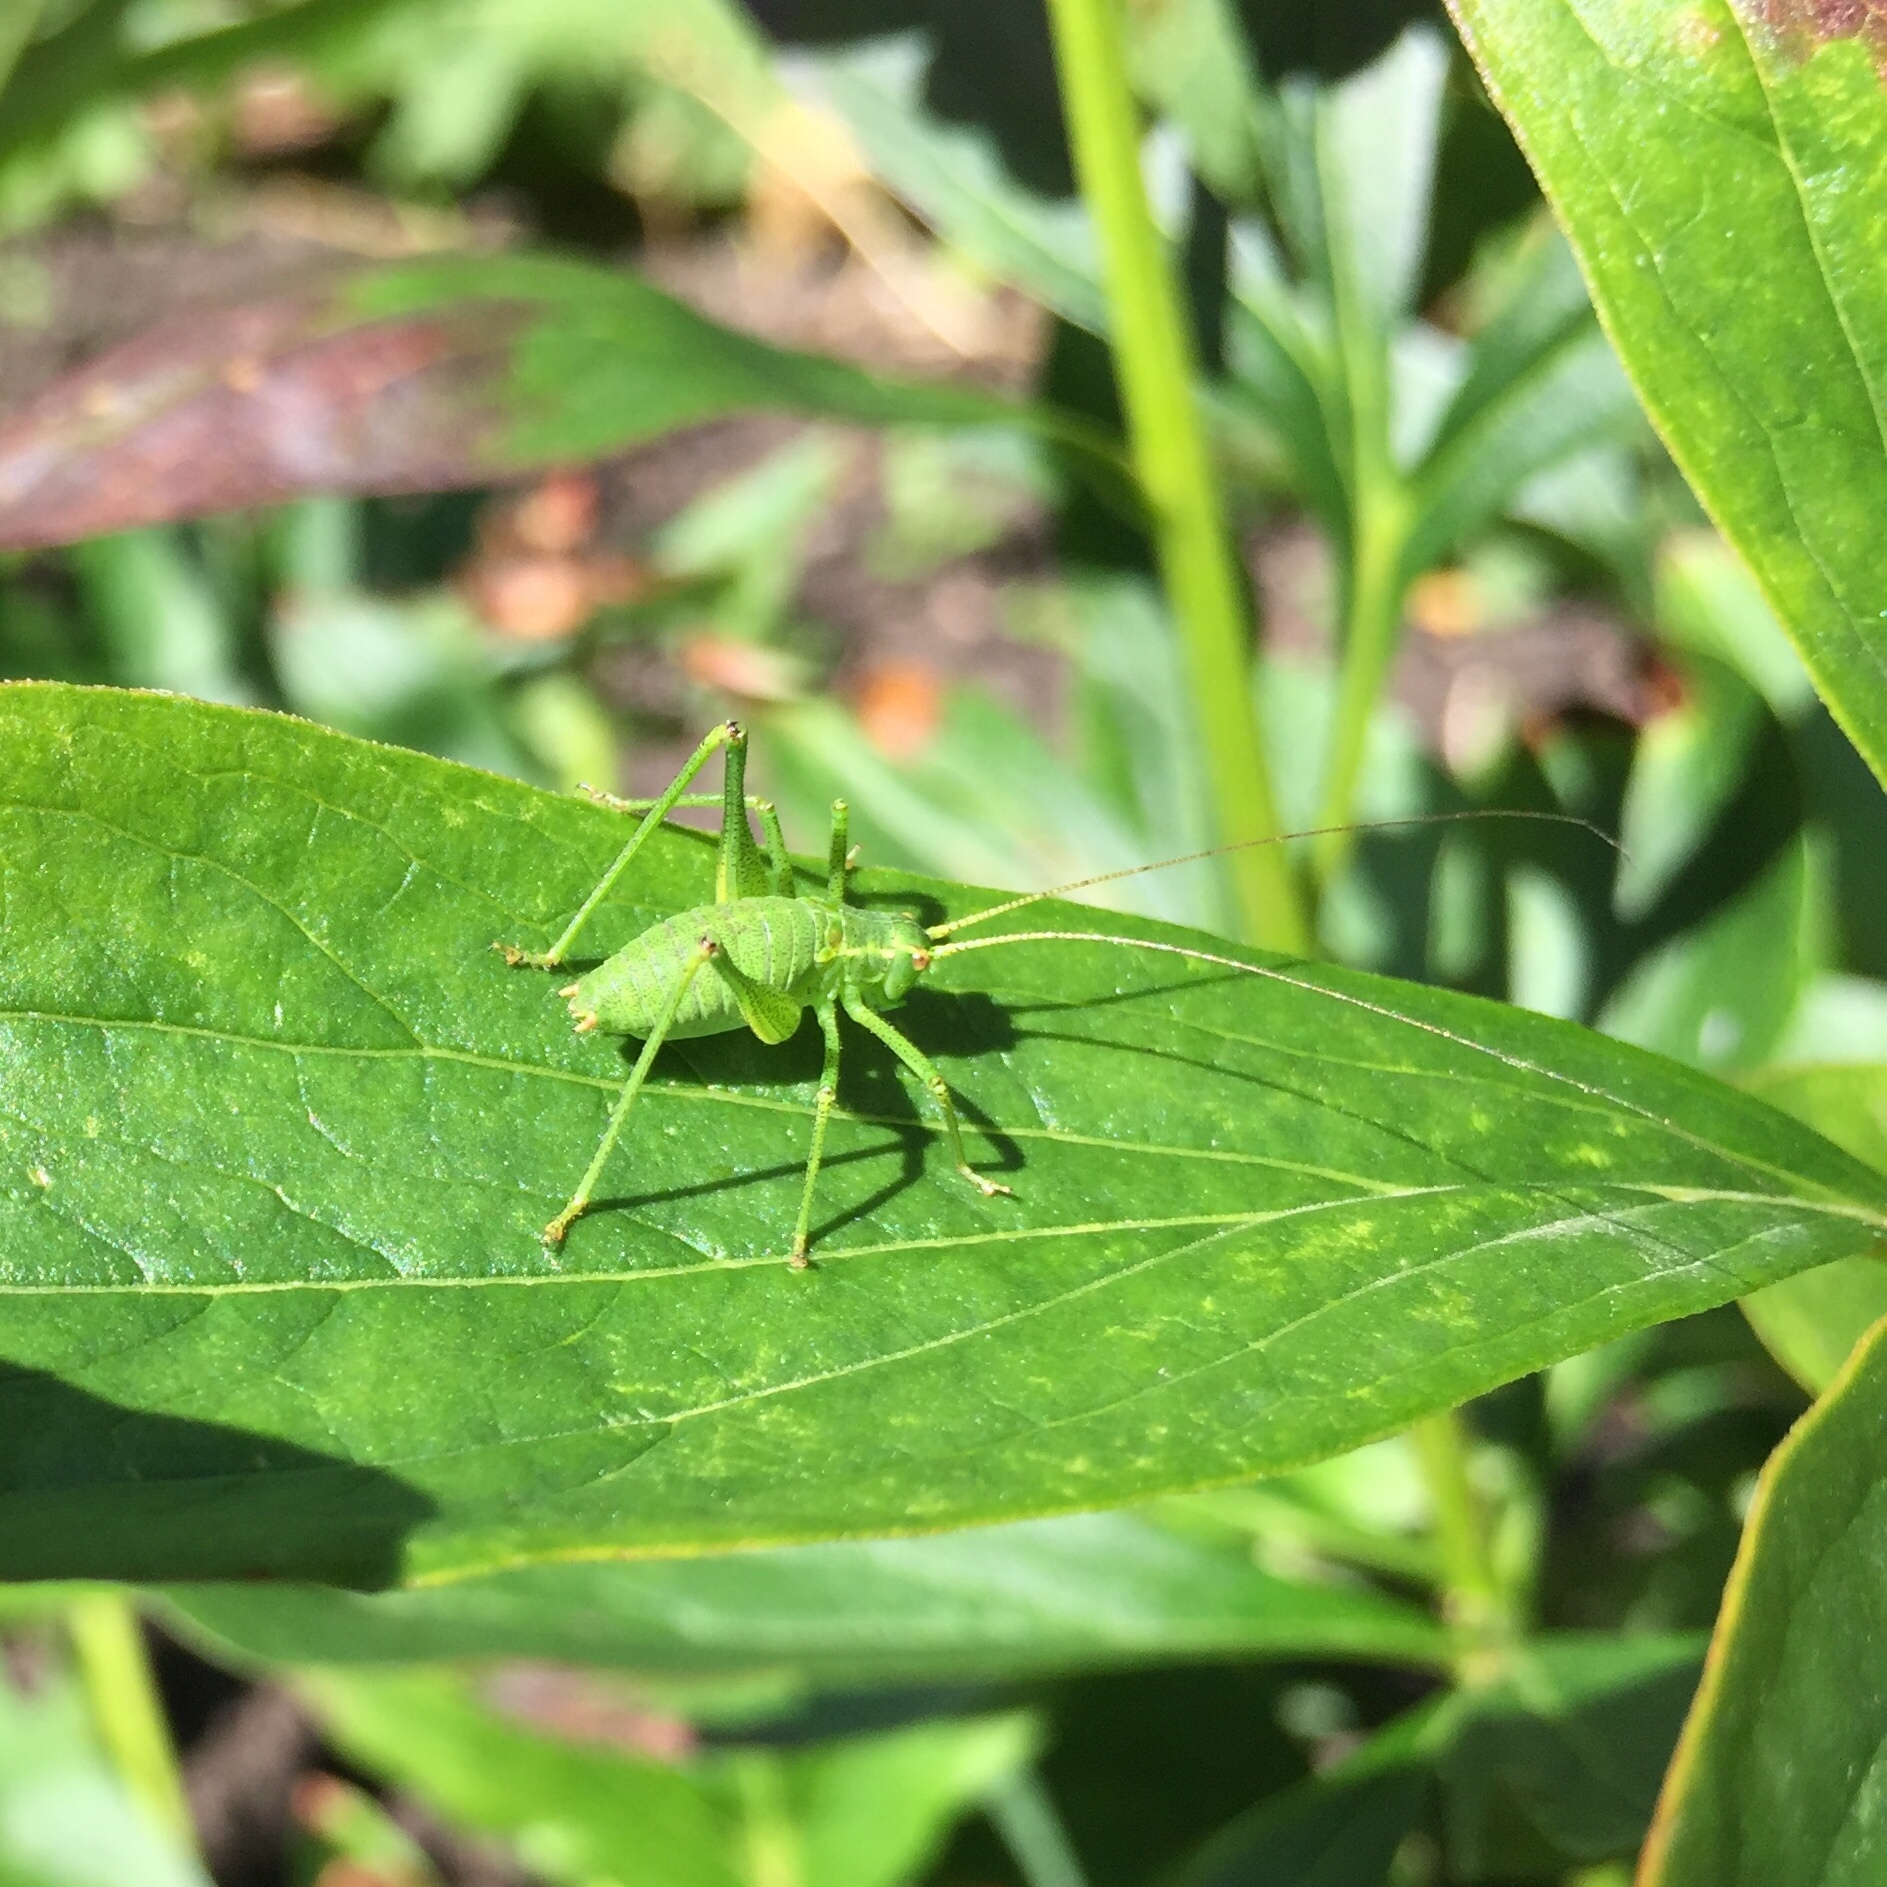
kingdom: Animalia
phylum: Arthropoda
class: Insecta
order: Orthoptera
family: Tettigoniidae
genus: Leptophyes
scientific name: Leptophyes punctatissima
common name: Speckled bush-cricket
